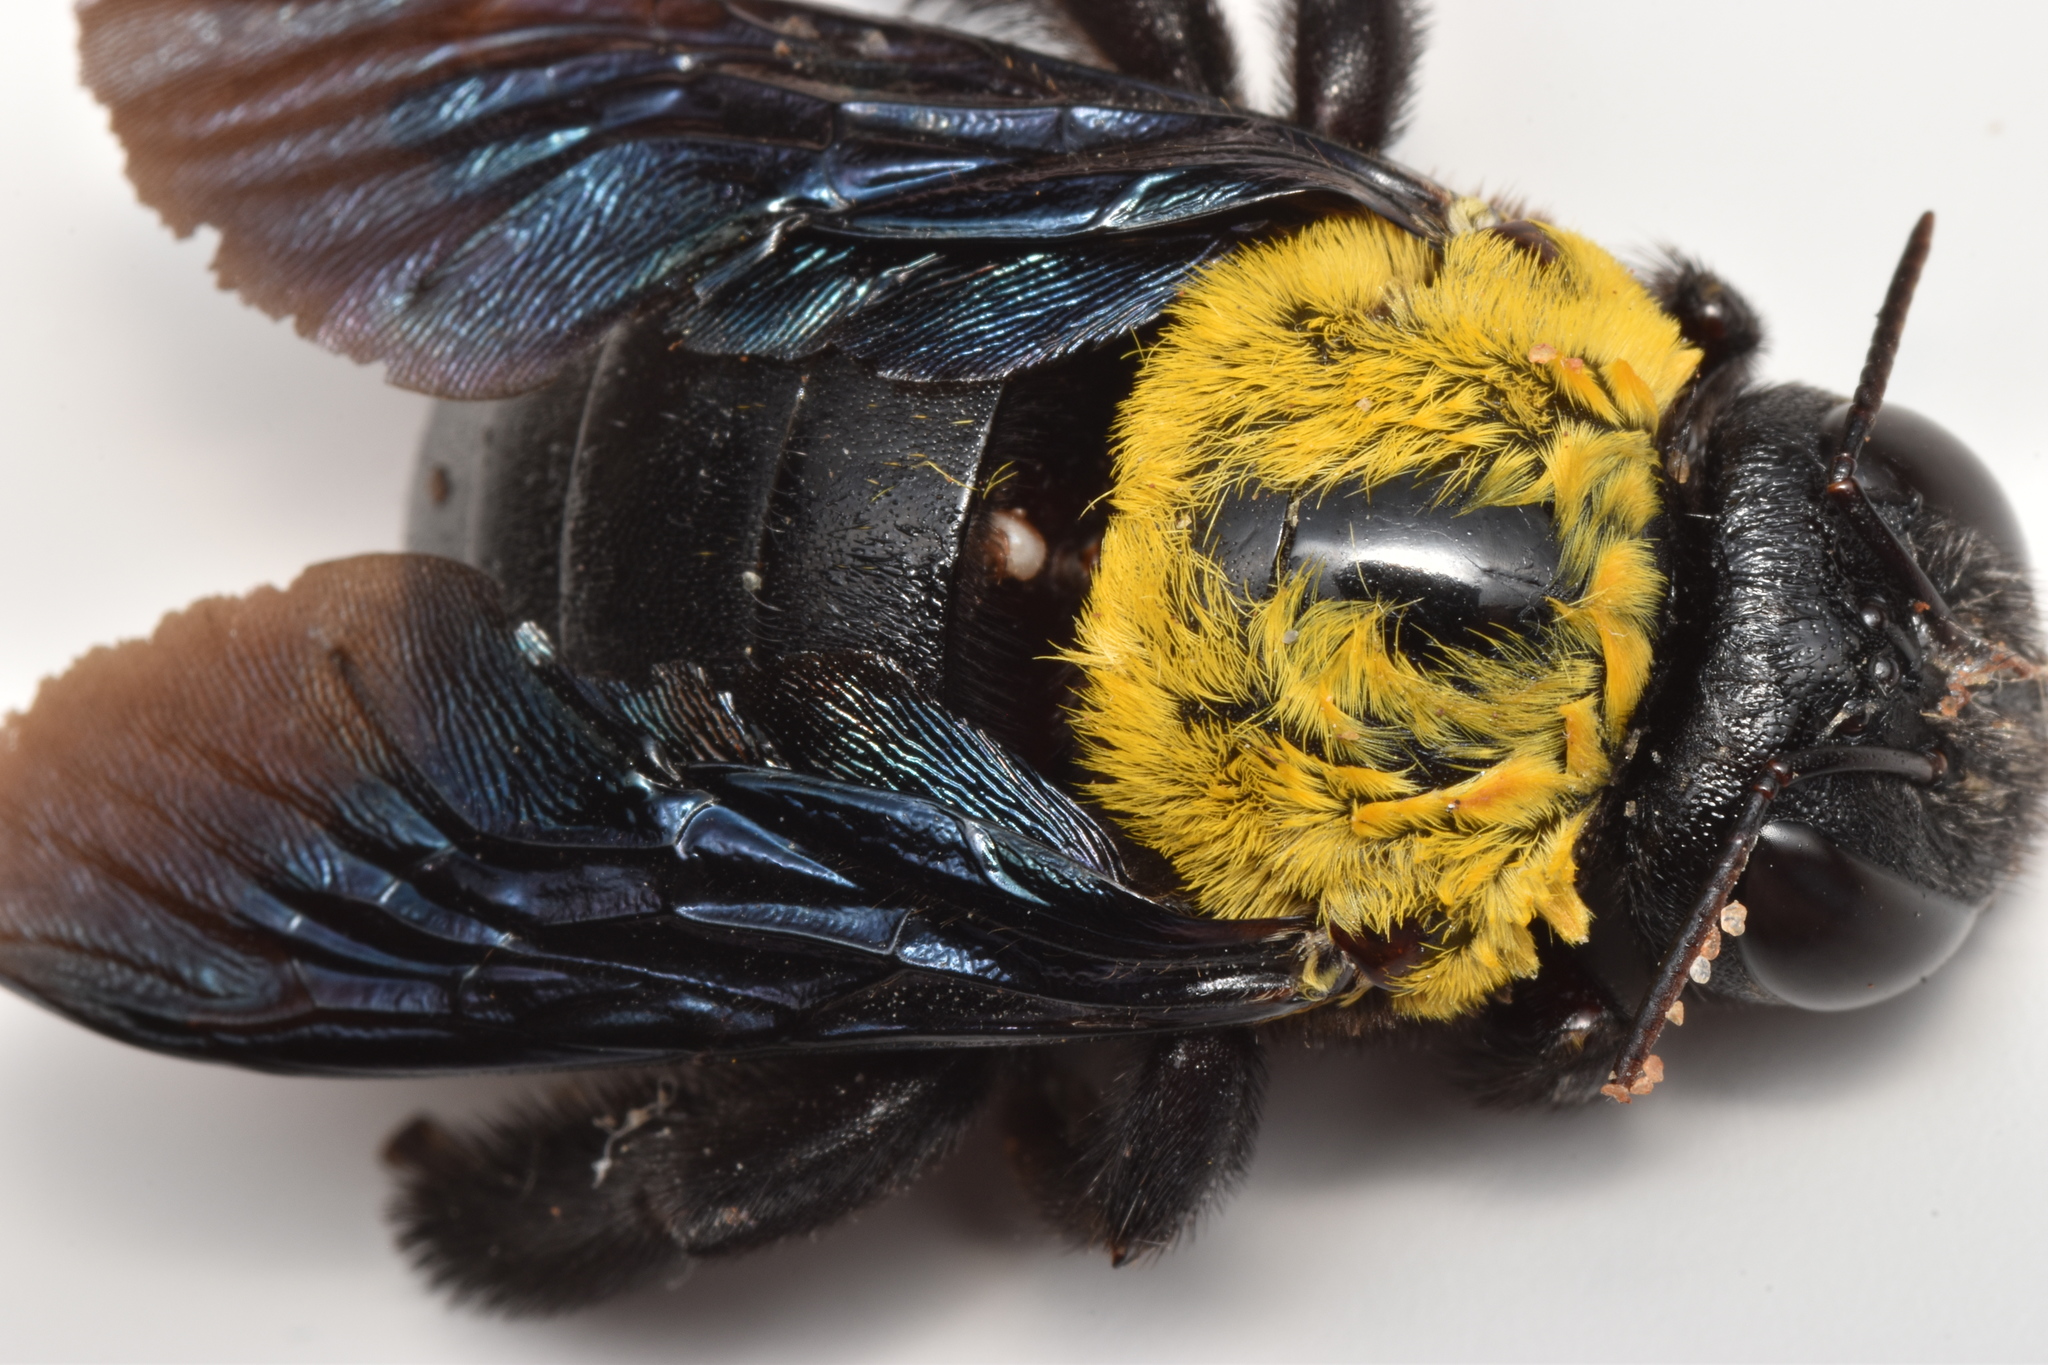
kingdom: Animalia
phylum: Arthropoda
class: Insecta
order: Hymenoptera
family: Apidae
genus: Xylocopa
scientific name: Xylocopa pubescens
